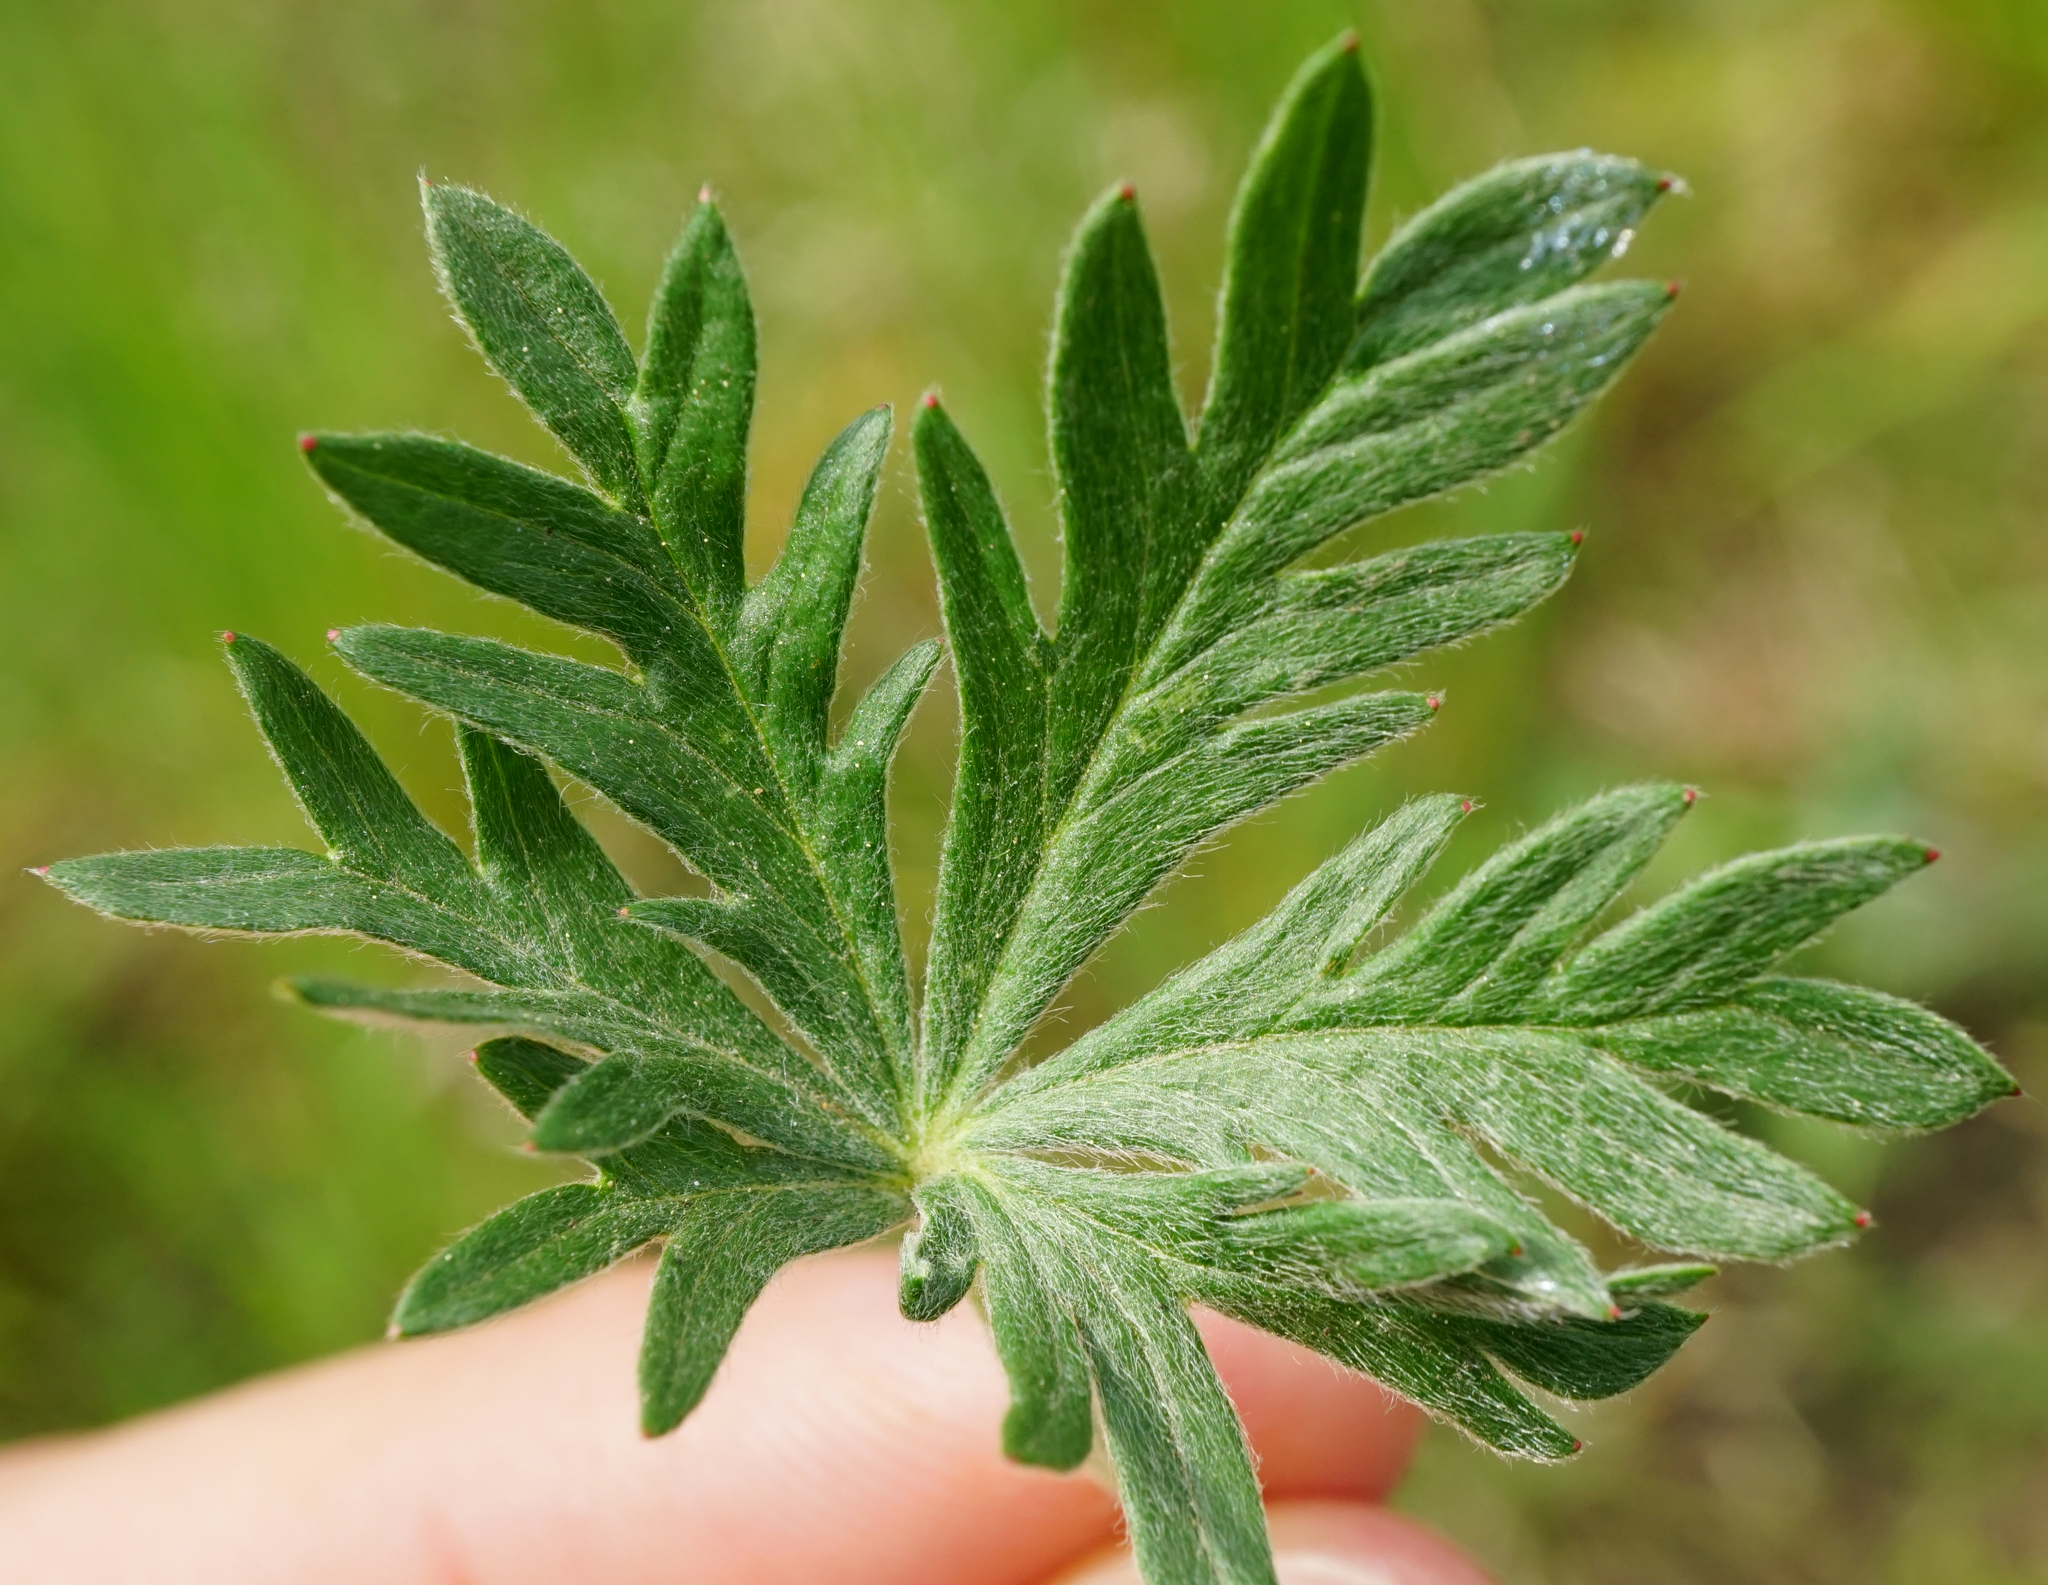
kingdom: Plantae
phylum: Tracheophyta
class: Magnoliopsida
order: Rosales
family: Rosaceae
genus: Potentilla
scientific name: Potentilla argentea
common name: Hoary cinquefoil
